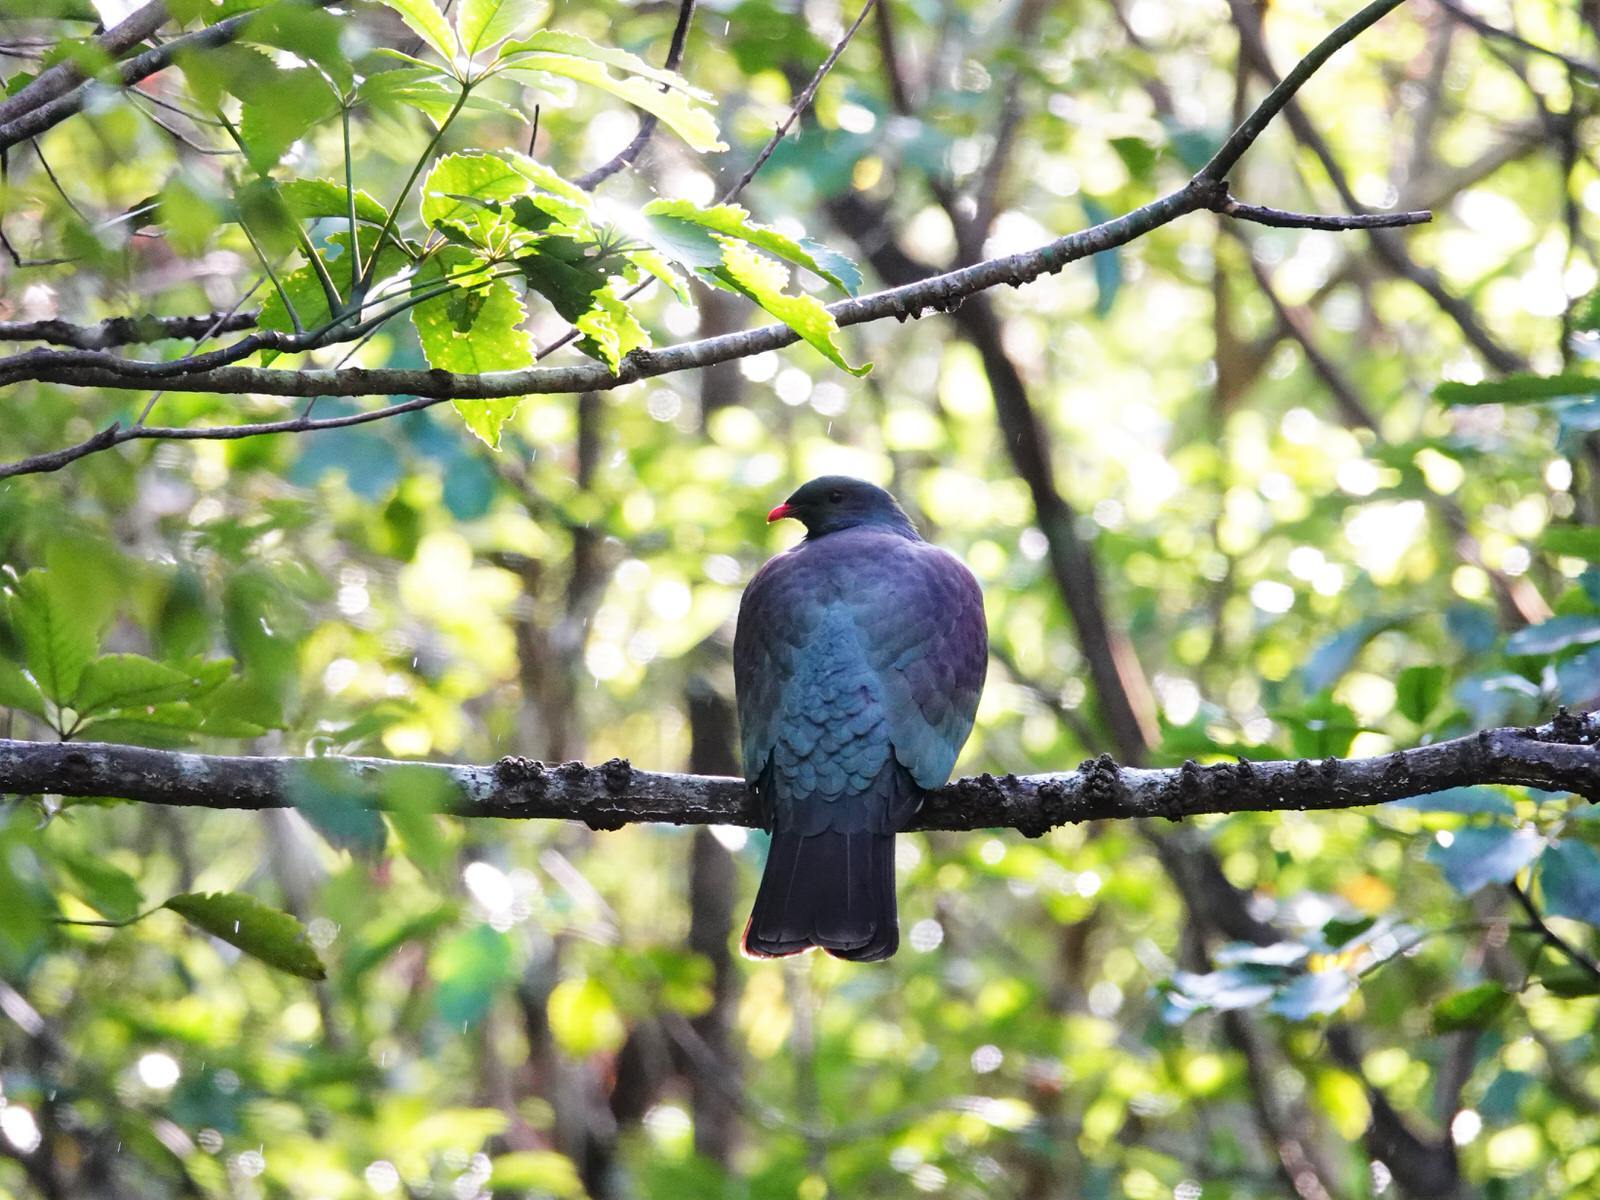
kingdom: Animalia
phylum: Chordata
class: Aves
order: Columbiformes
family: Columbidae
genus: Hemiphaga
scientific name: Hemiphaga novaeseelandiae
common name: New zealand pigeon
